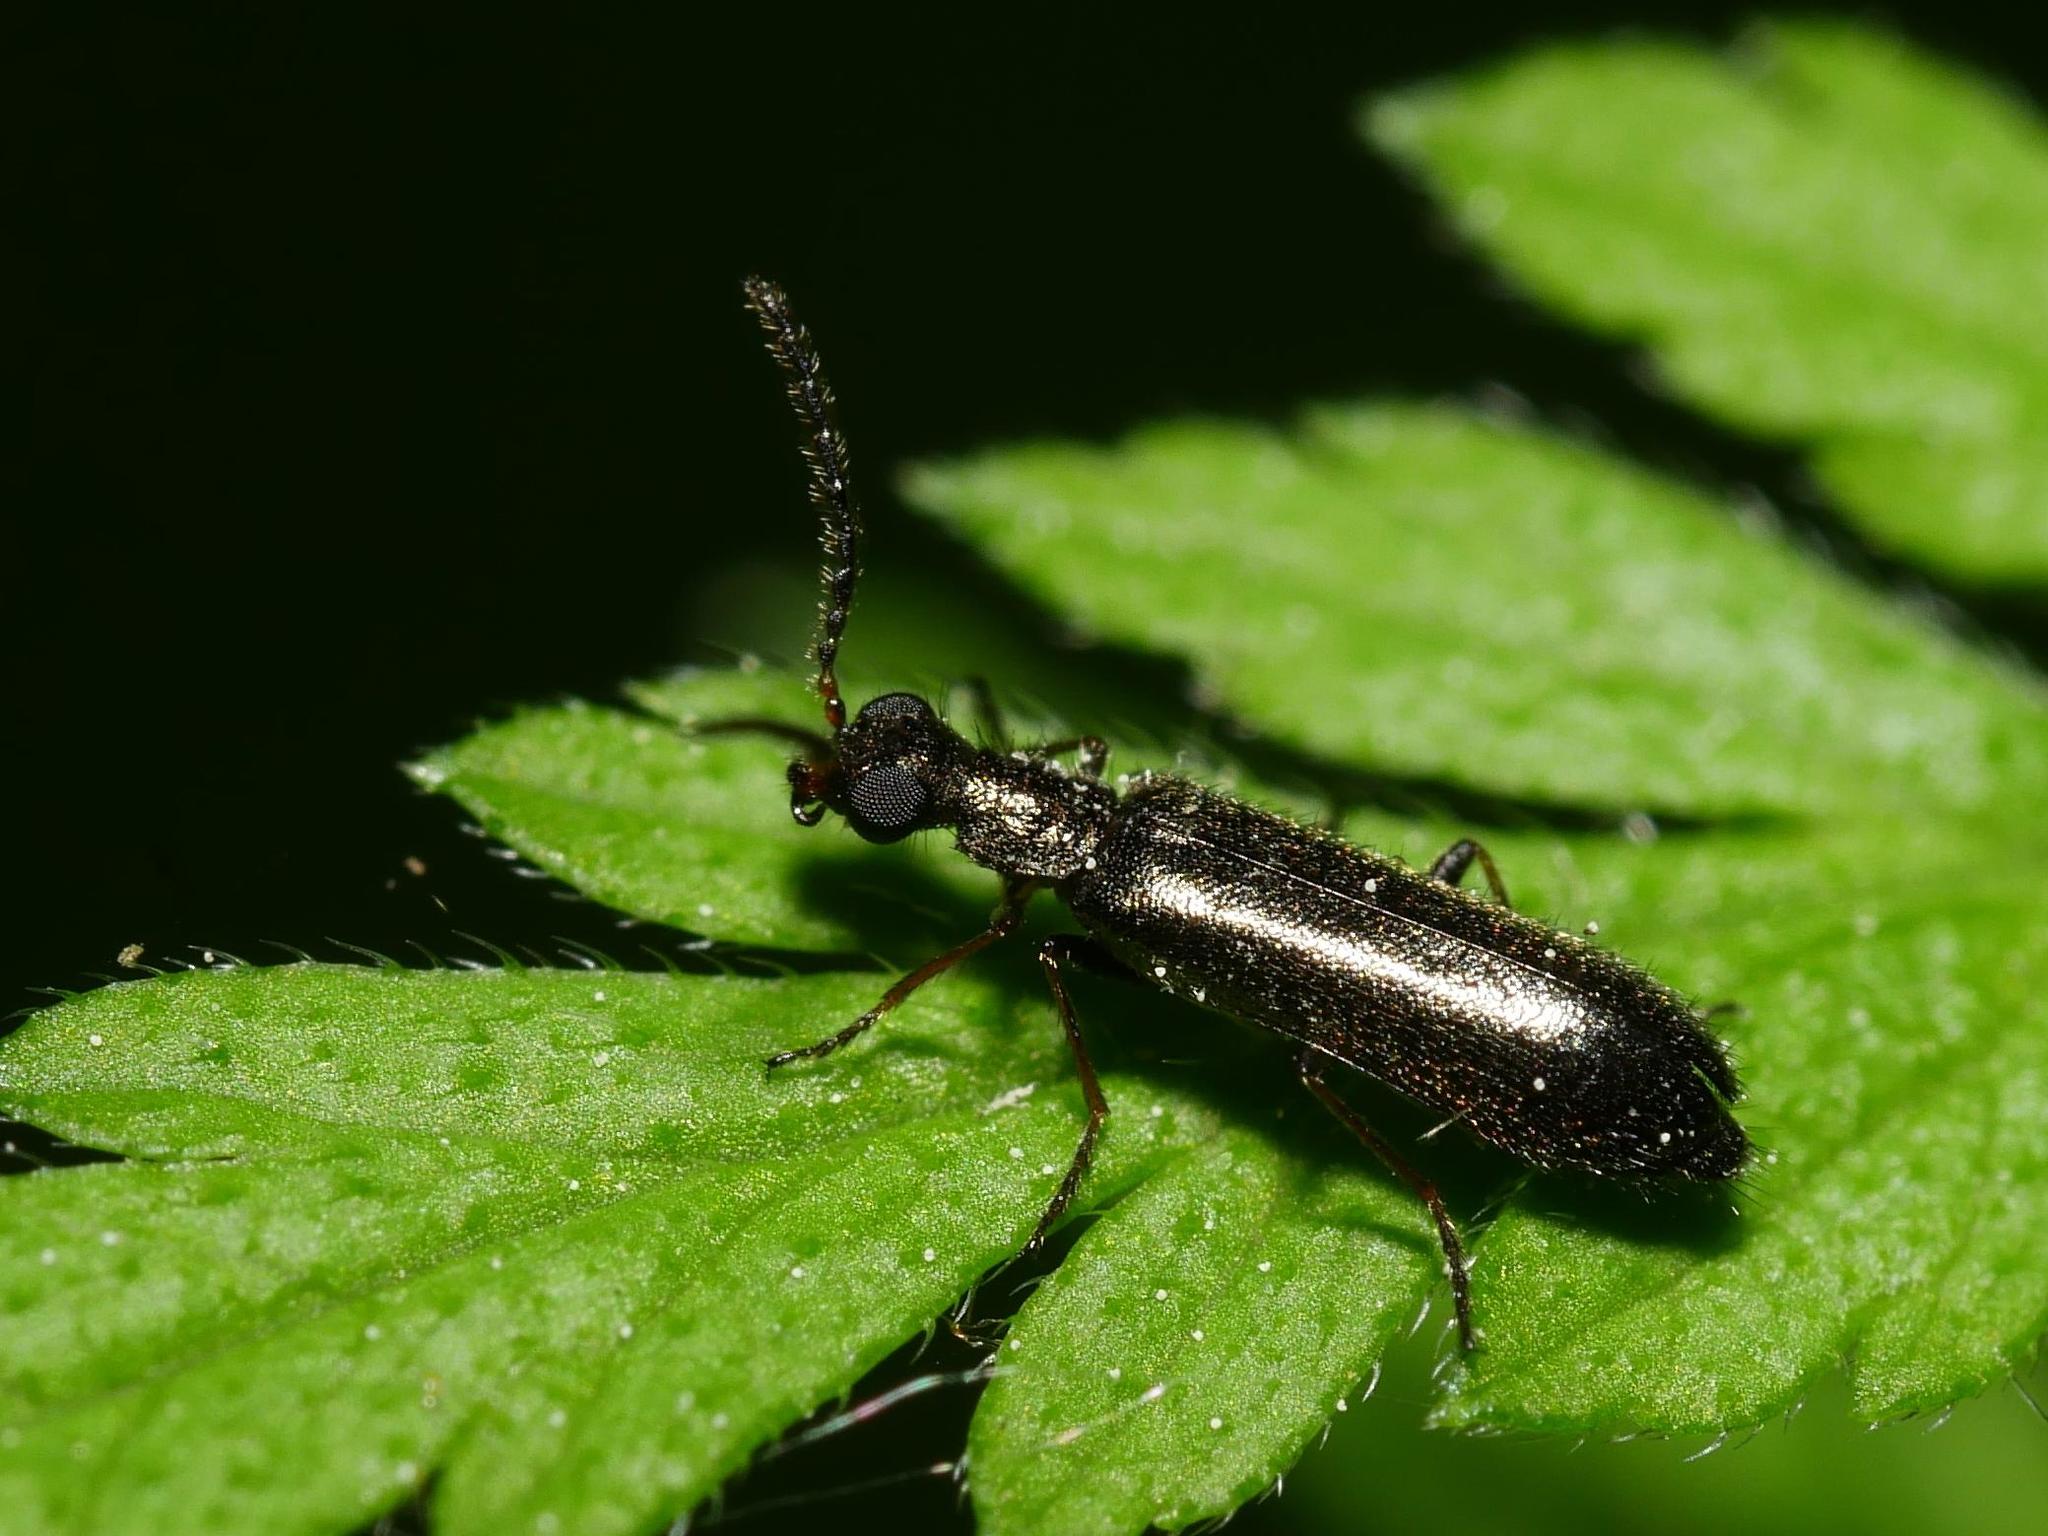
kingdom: Animalia
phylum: Arthropoda
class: Insecta
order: Coleoptera
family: Melyridae
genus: Dasytes
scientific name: Dasytes plumbeus
